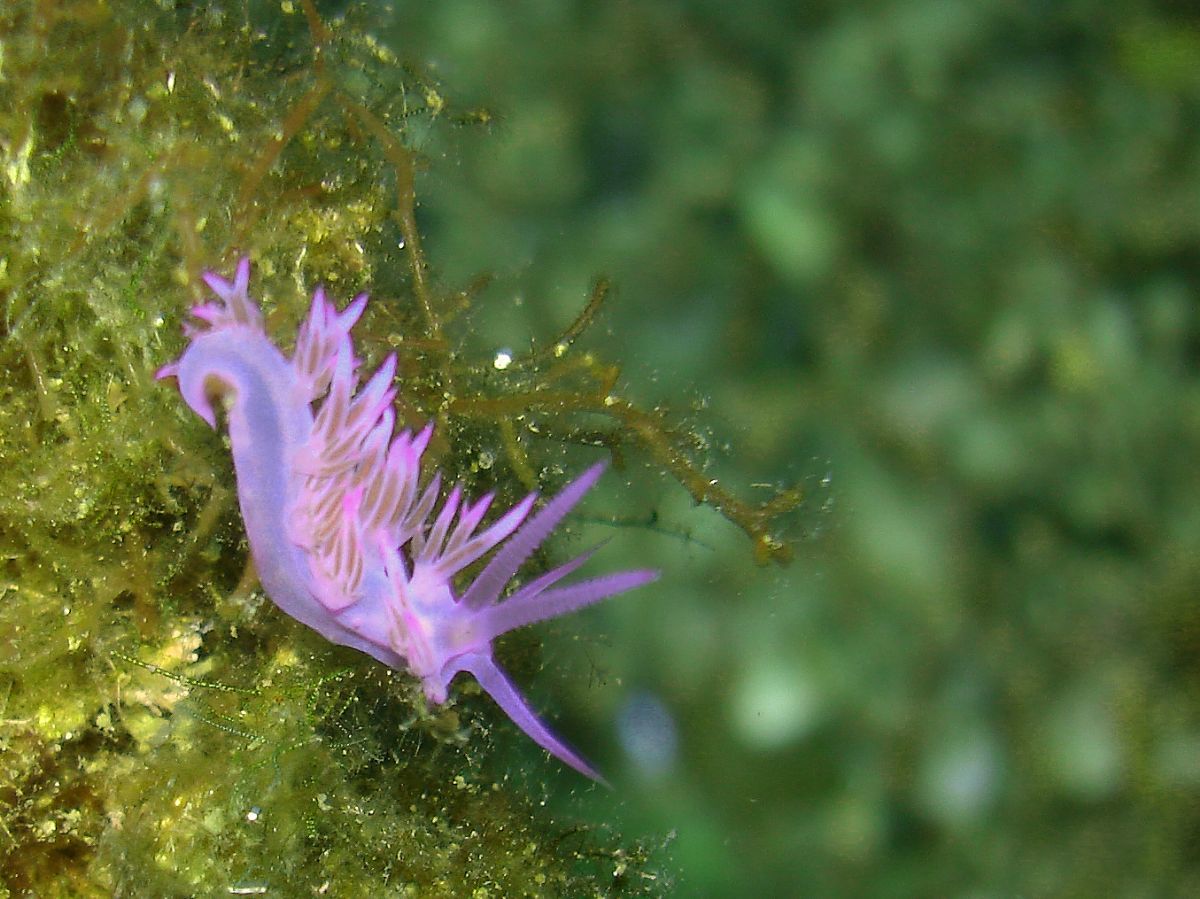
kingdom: Animalia
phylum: Mollusca
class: Gastropoda
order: Nudibranchia
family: Flabellinidae
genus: Flabellina
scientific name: Flabellina affinis
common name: Mediterranean violet aeolid
